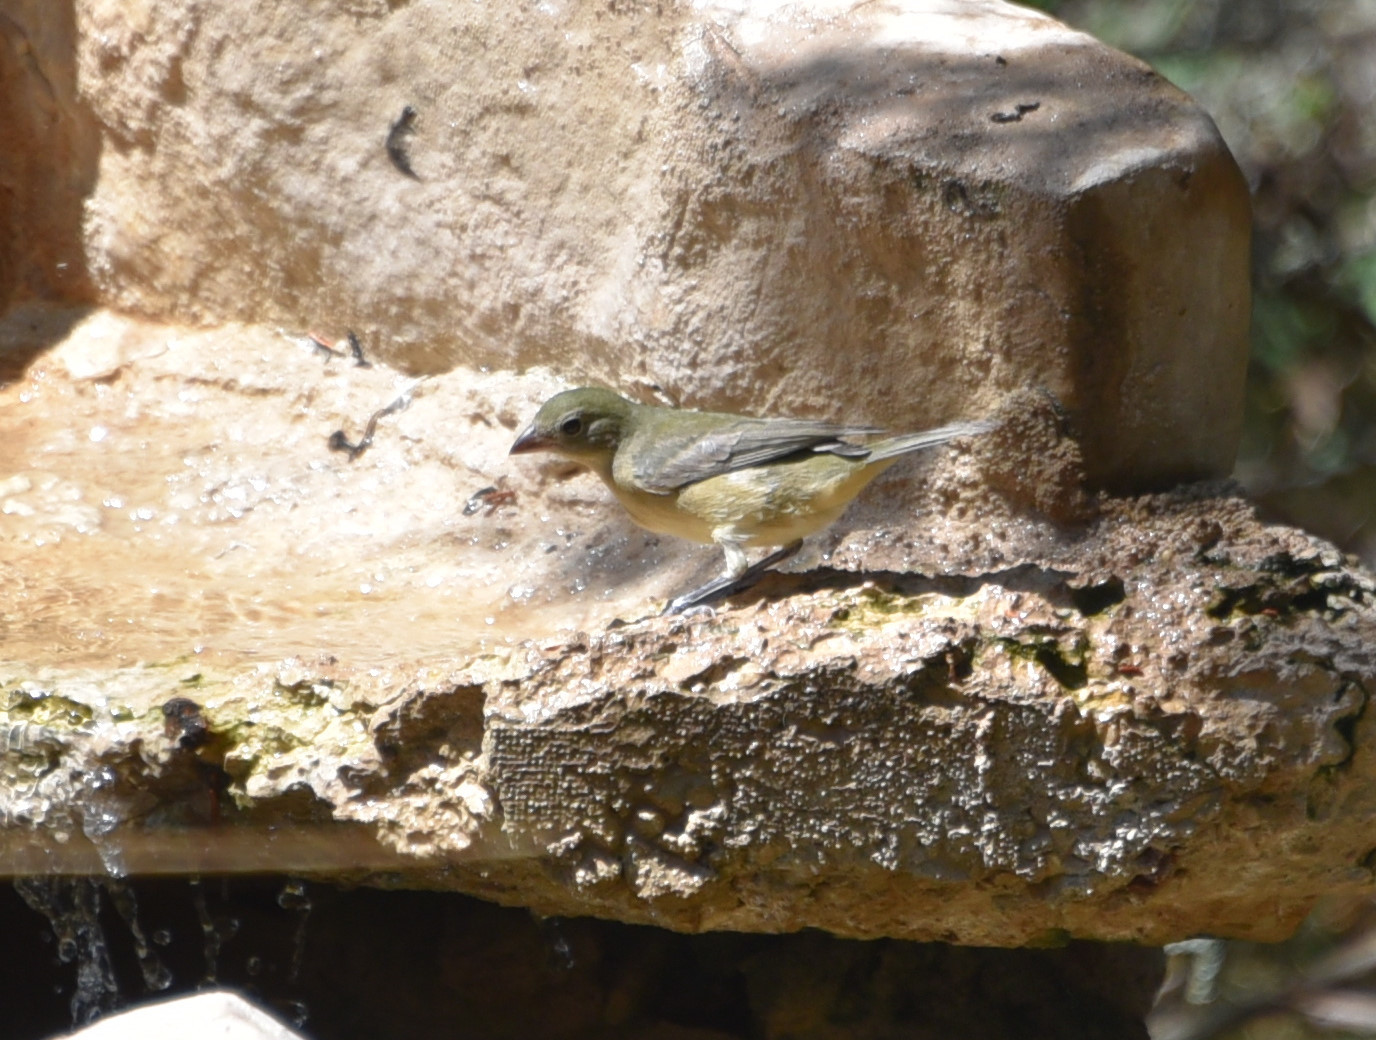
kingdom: Animalia
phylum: Chordata
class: Aves
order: Passeriformes
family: Cardinalidae
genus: Passerina
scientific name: Passerina ciris
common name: Painted bunting
